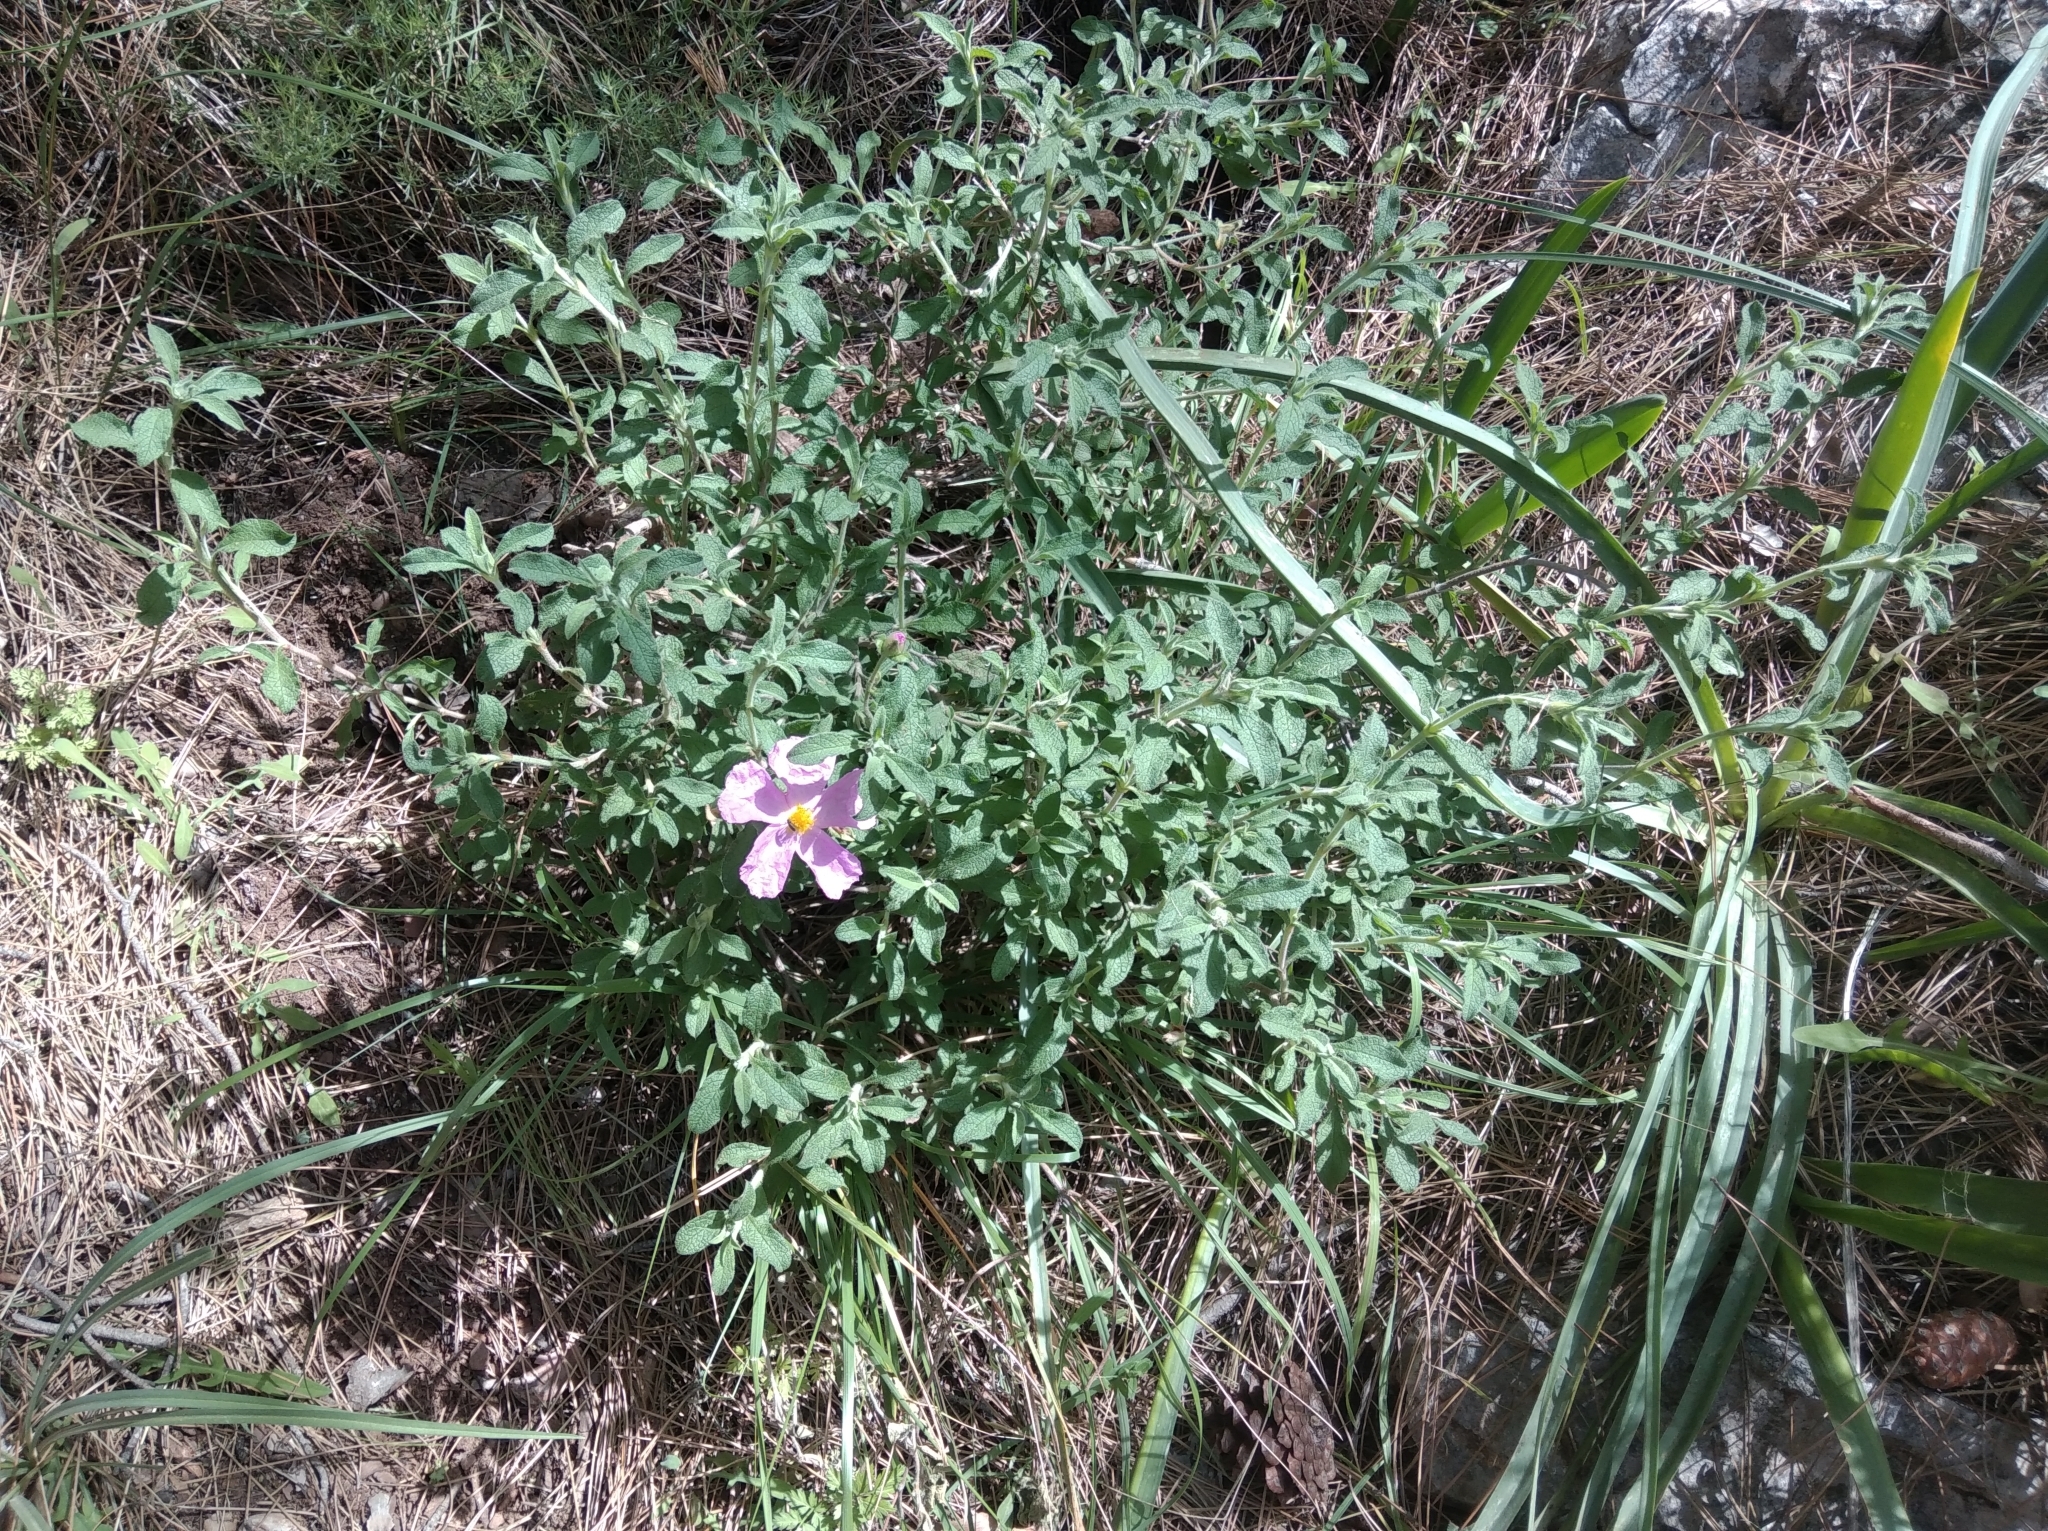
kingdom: Plantae
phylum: Tracheophyta
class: Magnoliopsida
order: Malvales
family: Cistaceae
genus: Cistus
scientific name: Cistus creticus
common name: Cretan rockrose
